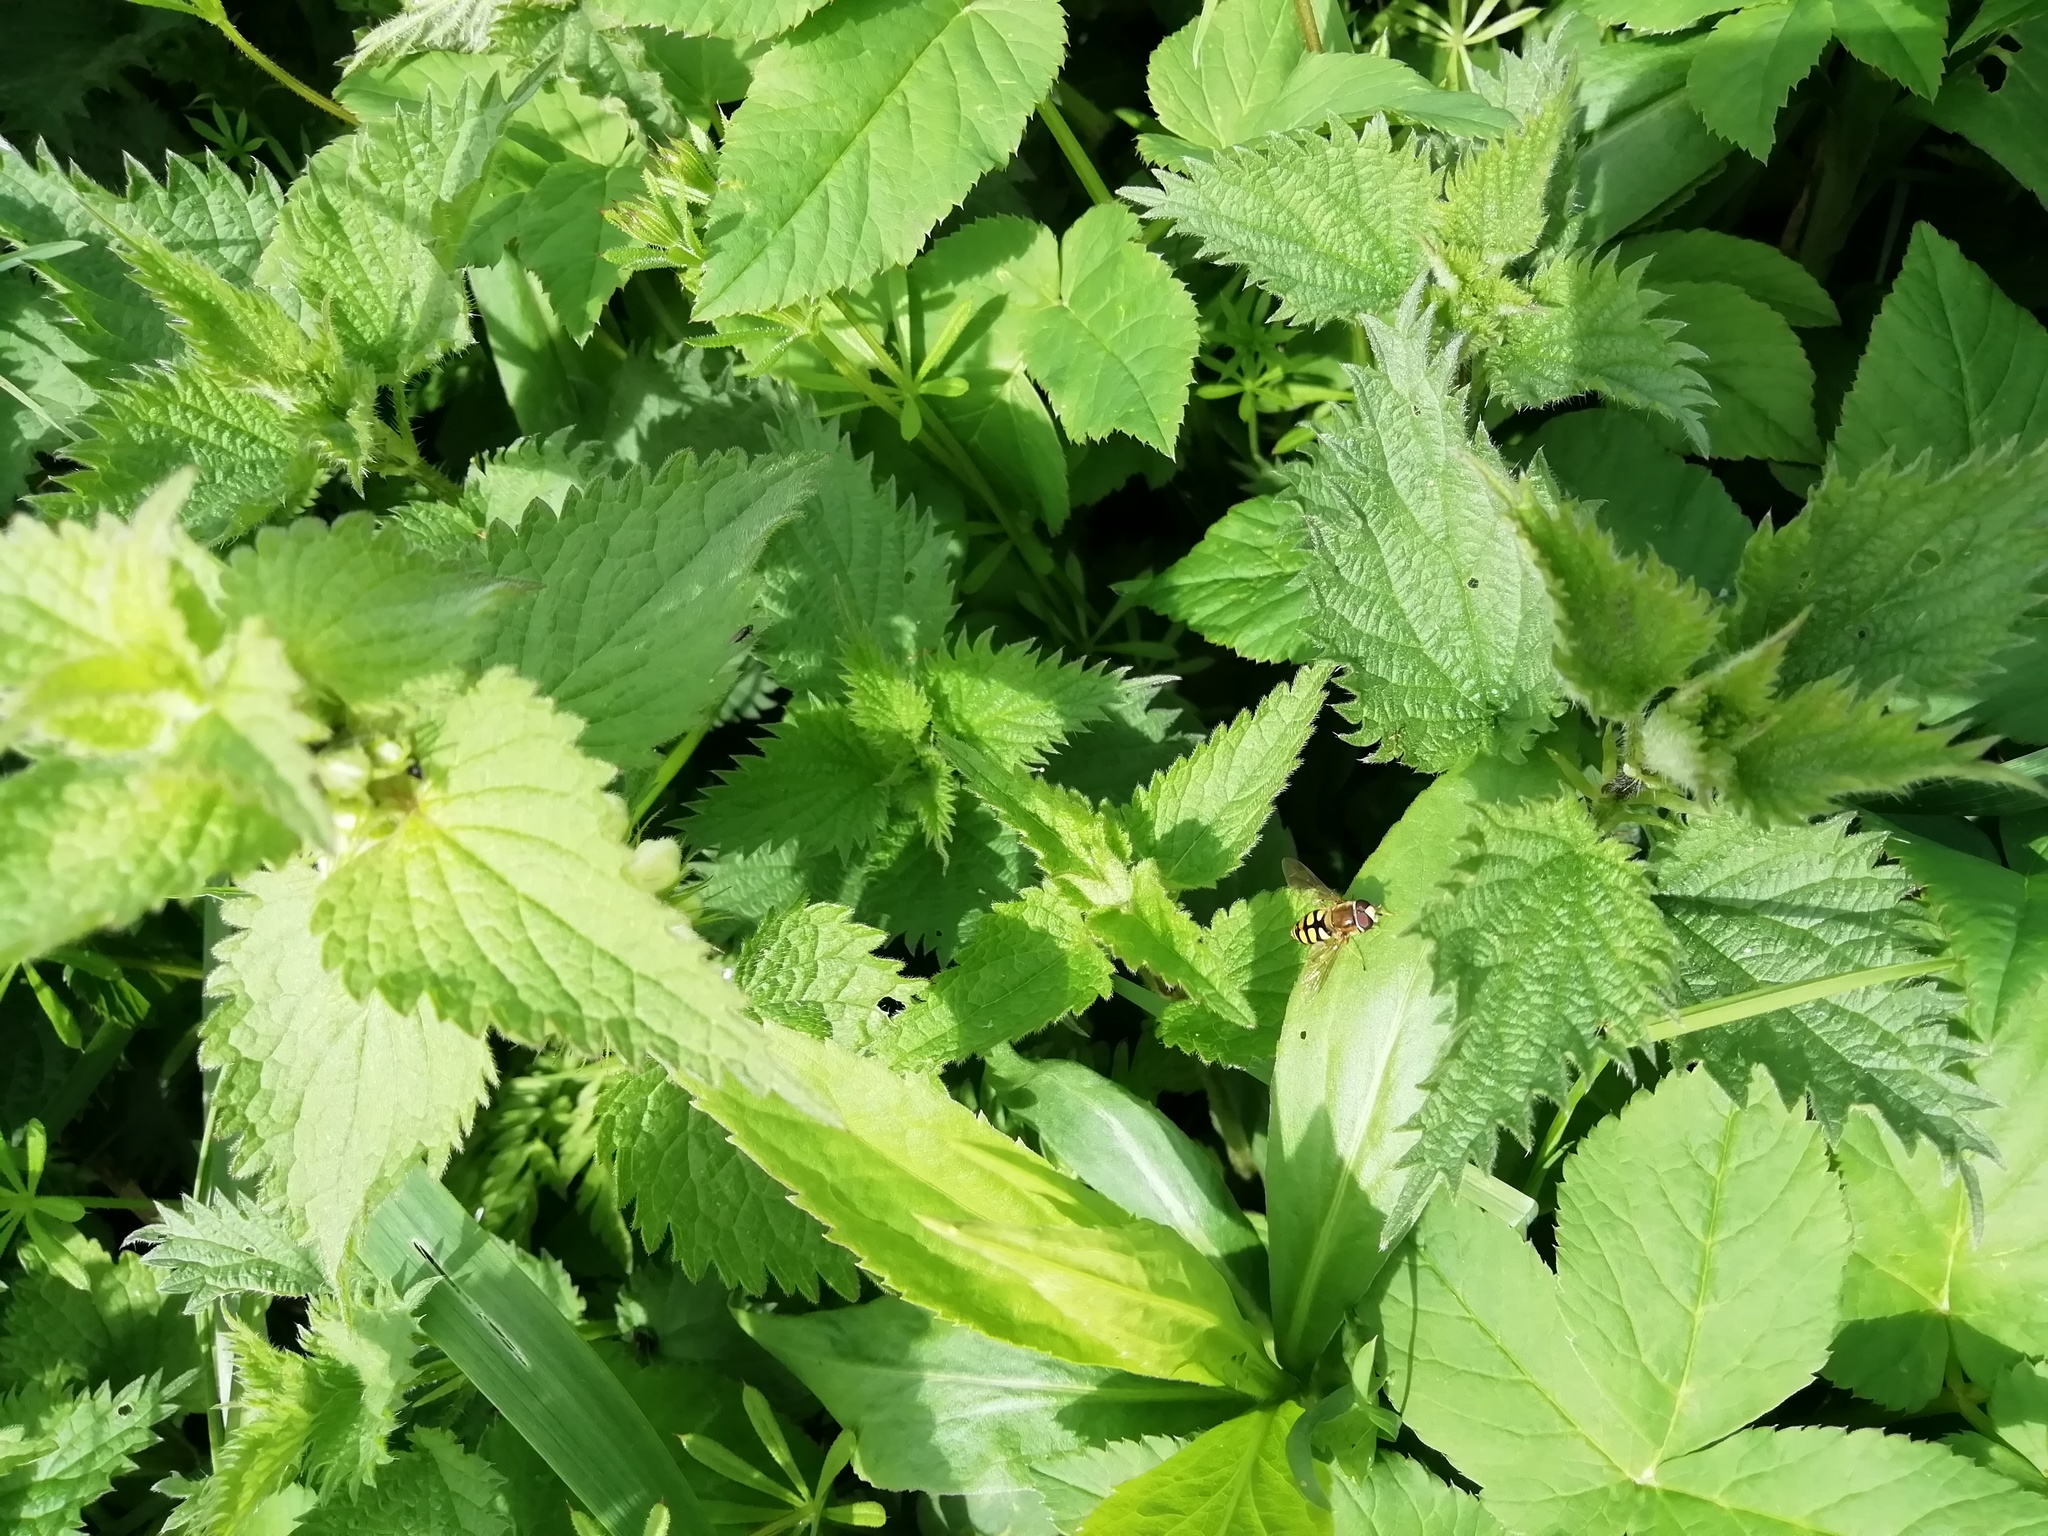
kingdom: Animalia
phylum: Arthropoda
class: Insecta
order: Diptera
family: Syrphidae
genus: Eupeodes
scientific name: Eupeodes
